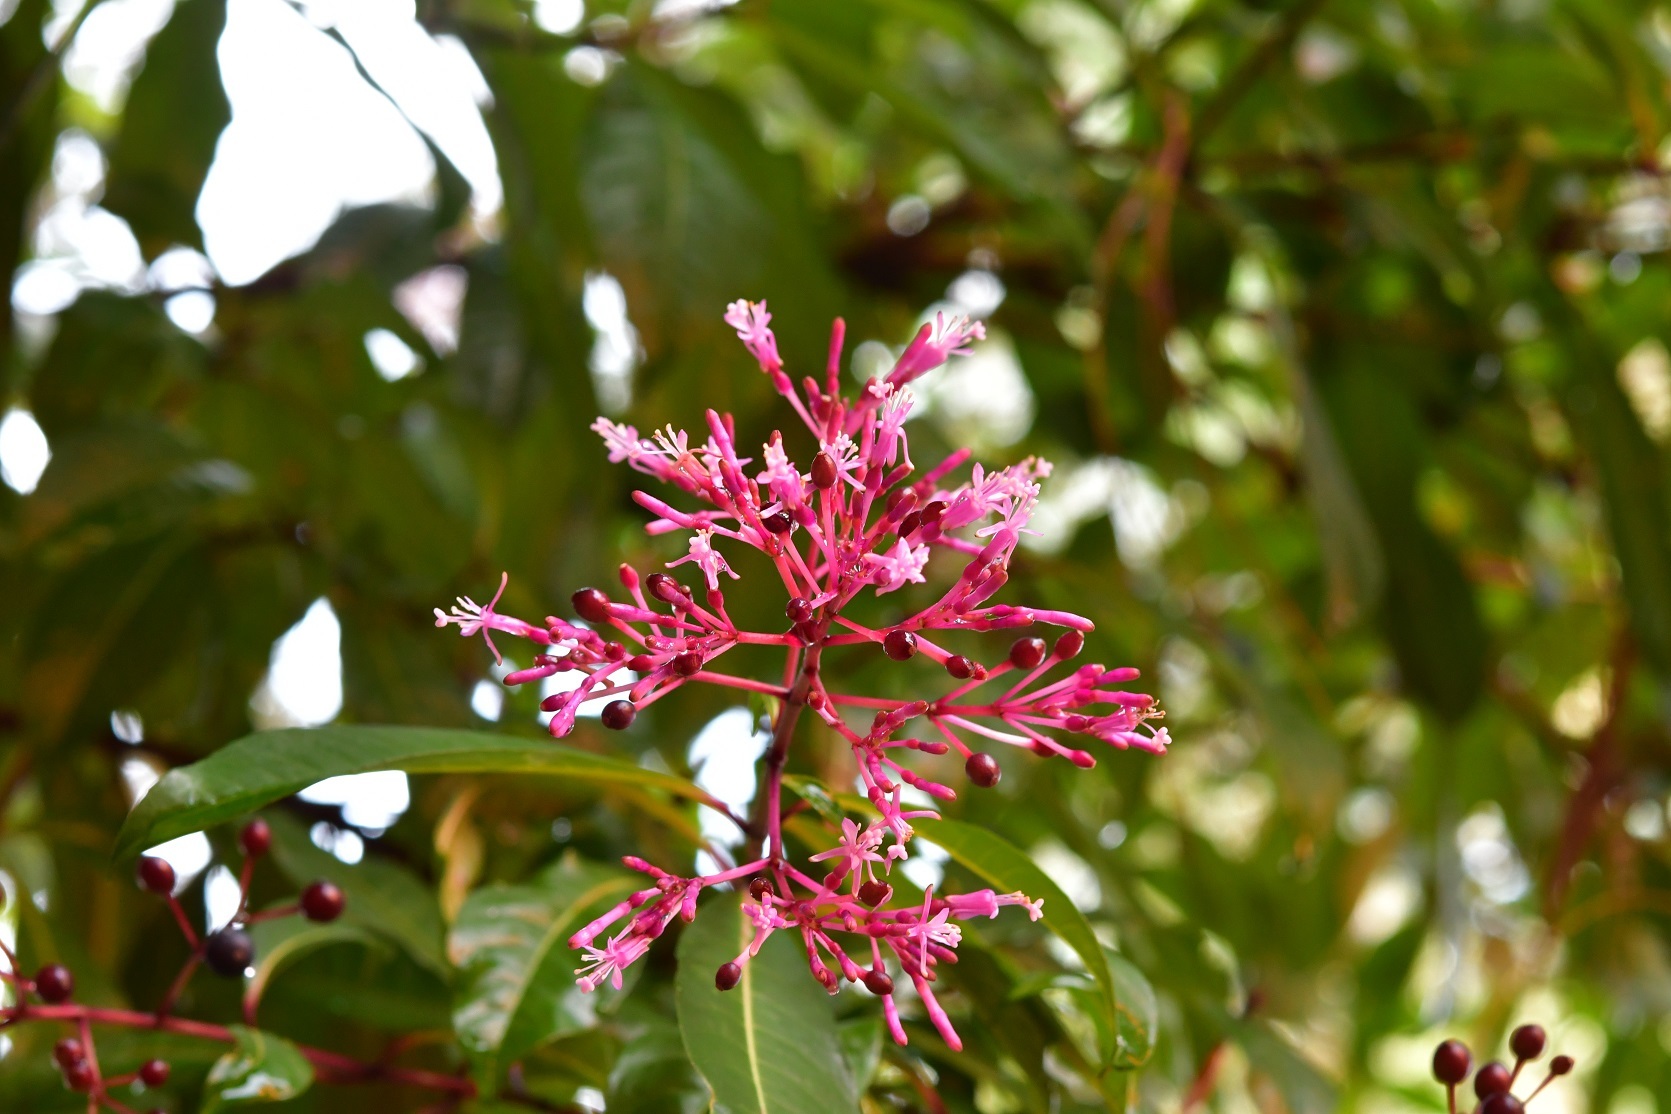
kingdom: Plantae
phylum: Tracheophyta
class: Magnoliopsida
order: Myrtales
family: Onagraceae
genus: Fuchsia
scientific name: Fuchsia paniculata
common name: Shrubby fuchsia
